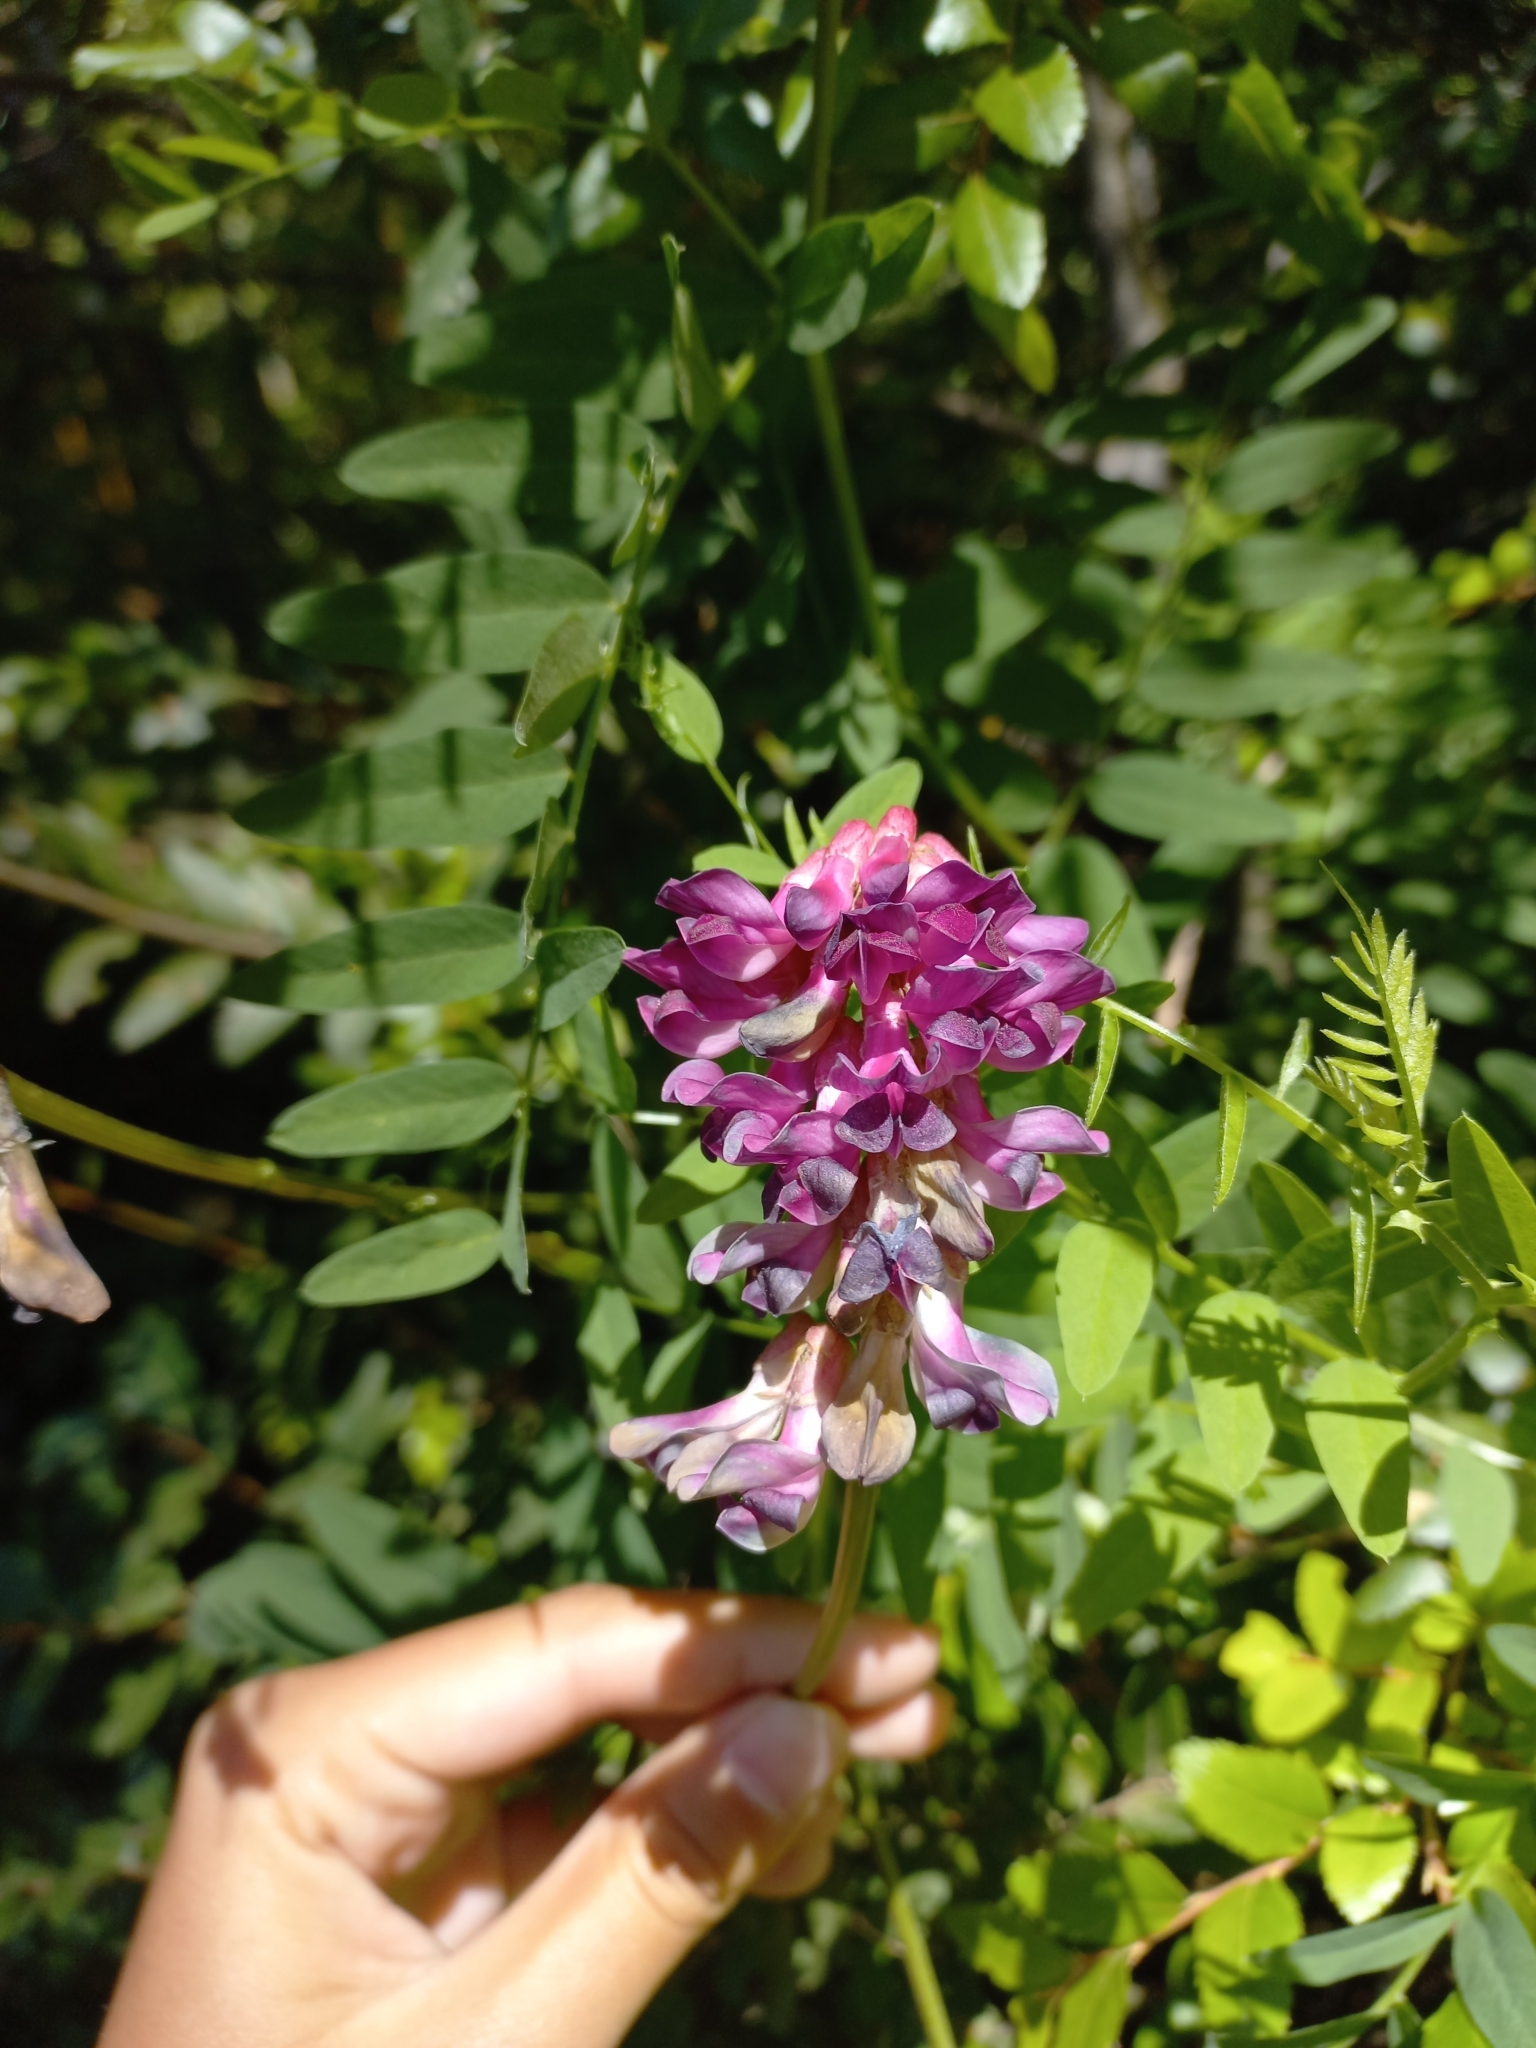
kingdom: Plantae
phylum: Tracheophyta
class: Magnoliopsida
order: Fabales
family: Fabaceae
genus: Vicia
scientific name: Vicia nigricans
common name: Black vetch
